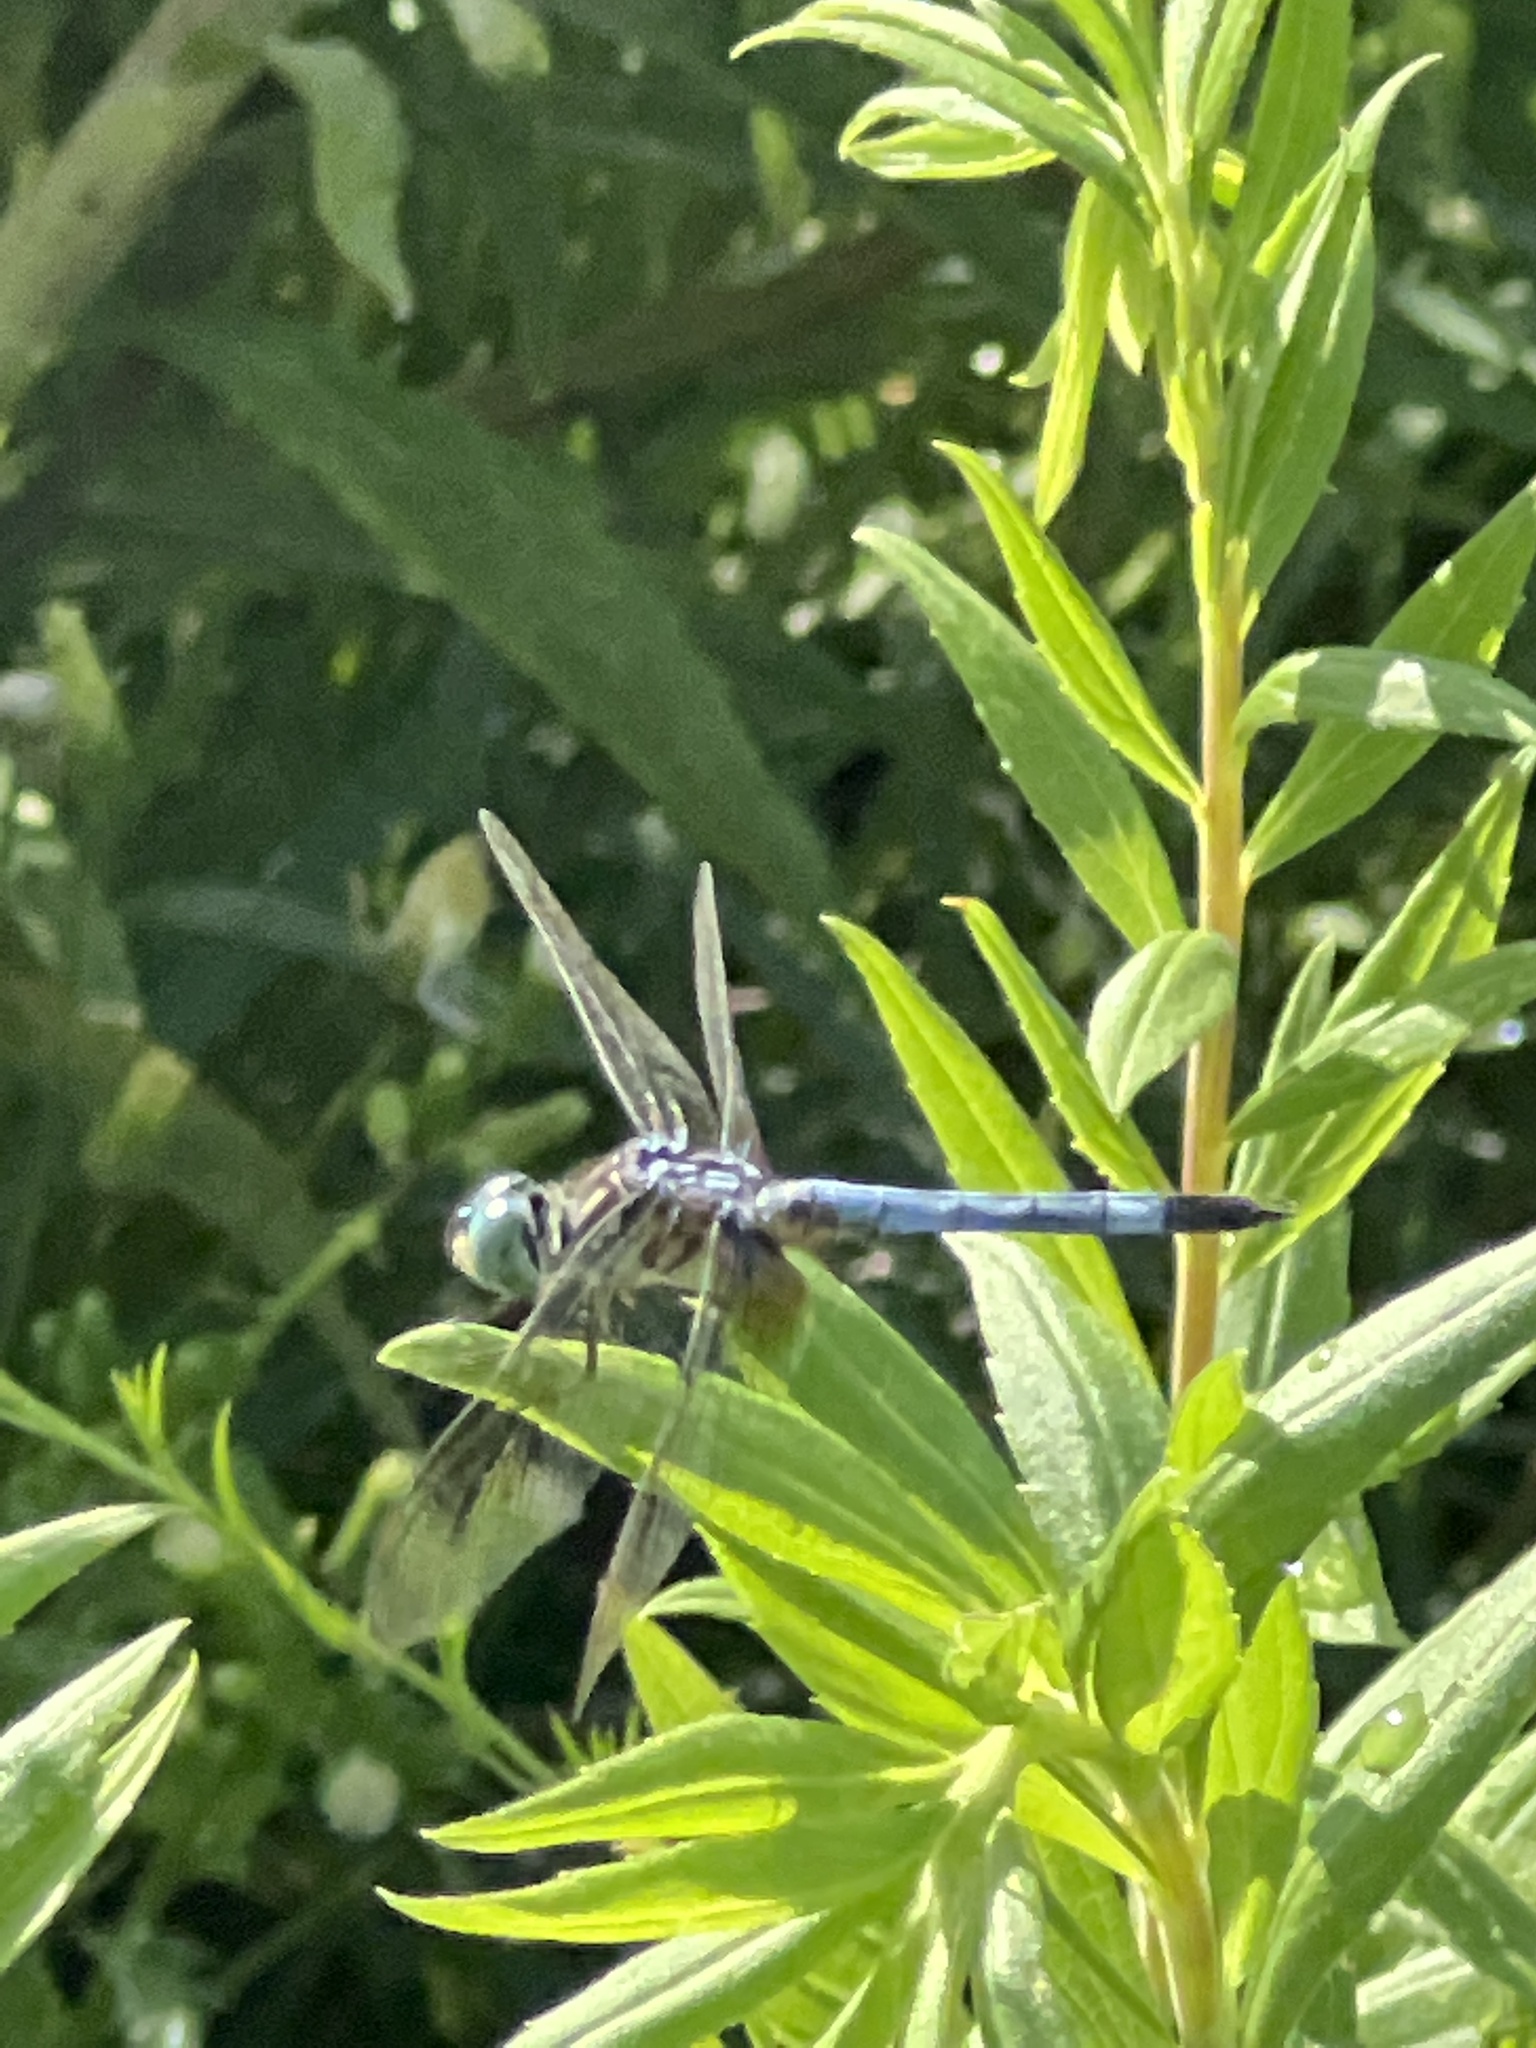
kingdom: Animalia
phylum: Arthropoda
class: Insecta
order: Odonata
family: Libellulidae
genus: Pachydiplax
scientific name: Pachydiplax longipennis
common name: Blue dasher
